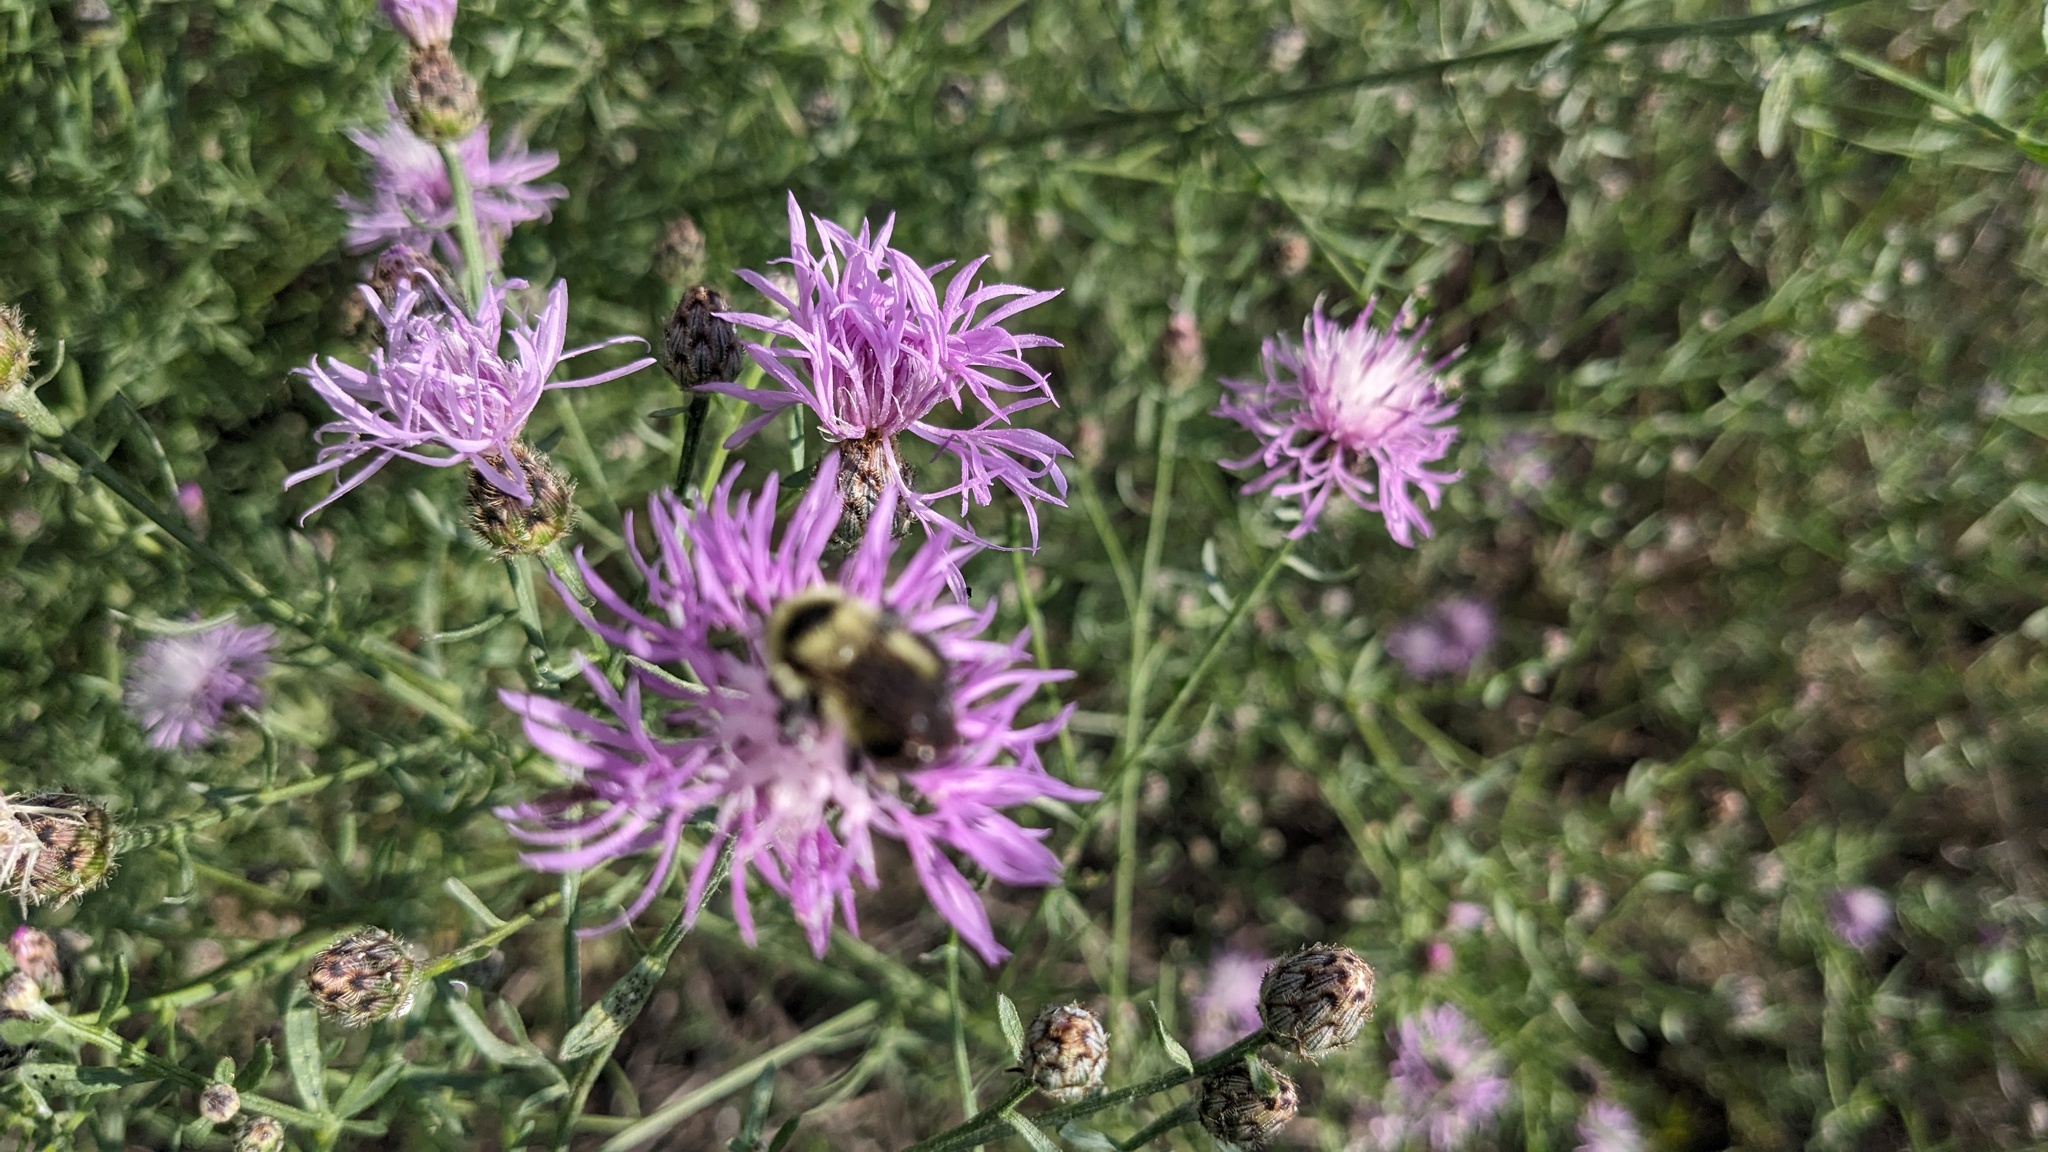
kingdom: Animalia
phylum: Arthropoda
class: Insecta
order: Hymenoptera
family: Apidae
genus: Bombus
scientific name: Bombus rufocinctus
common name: Red-belted bumble bee
